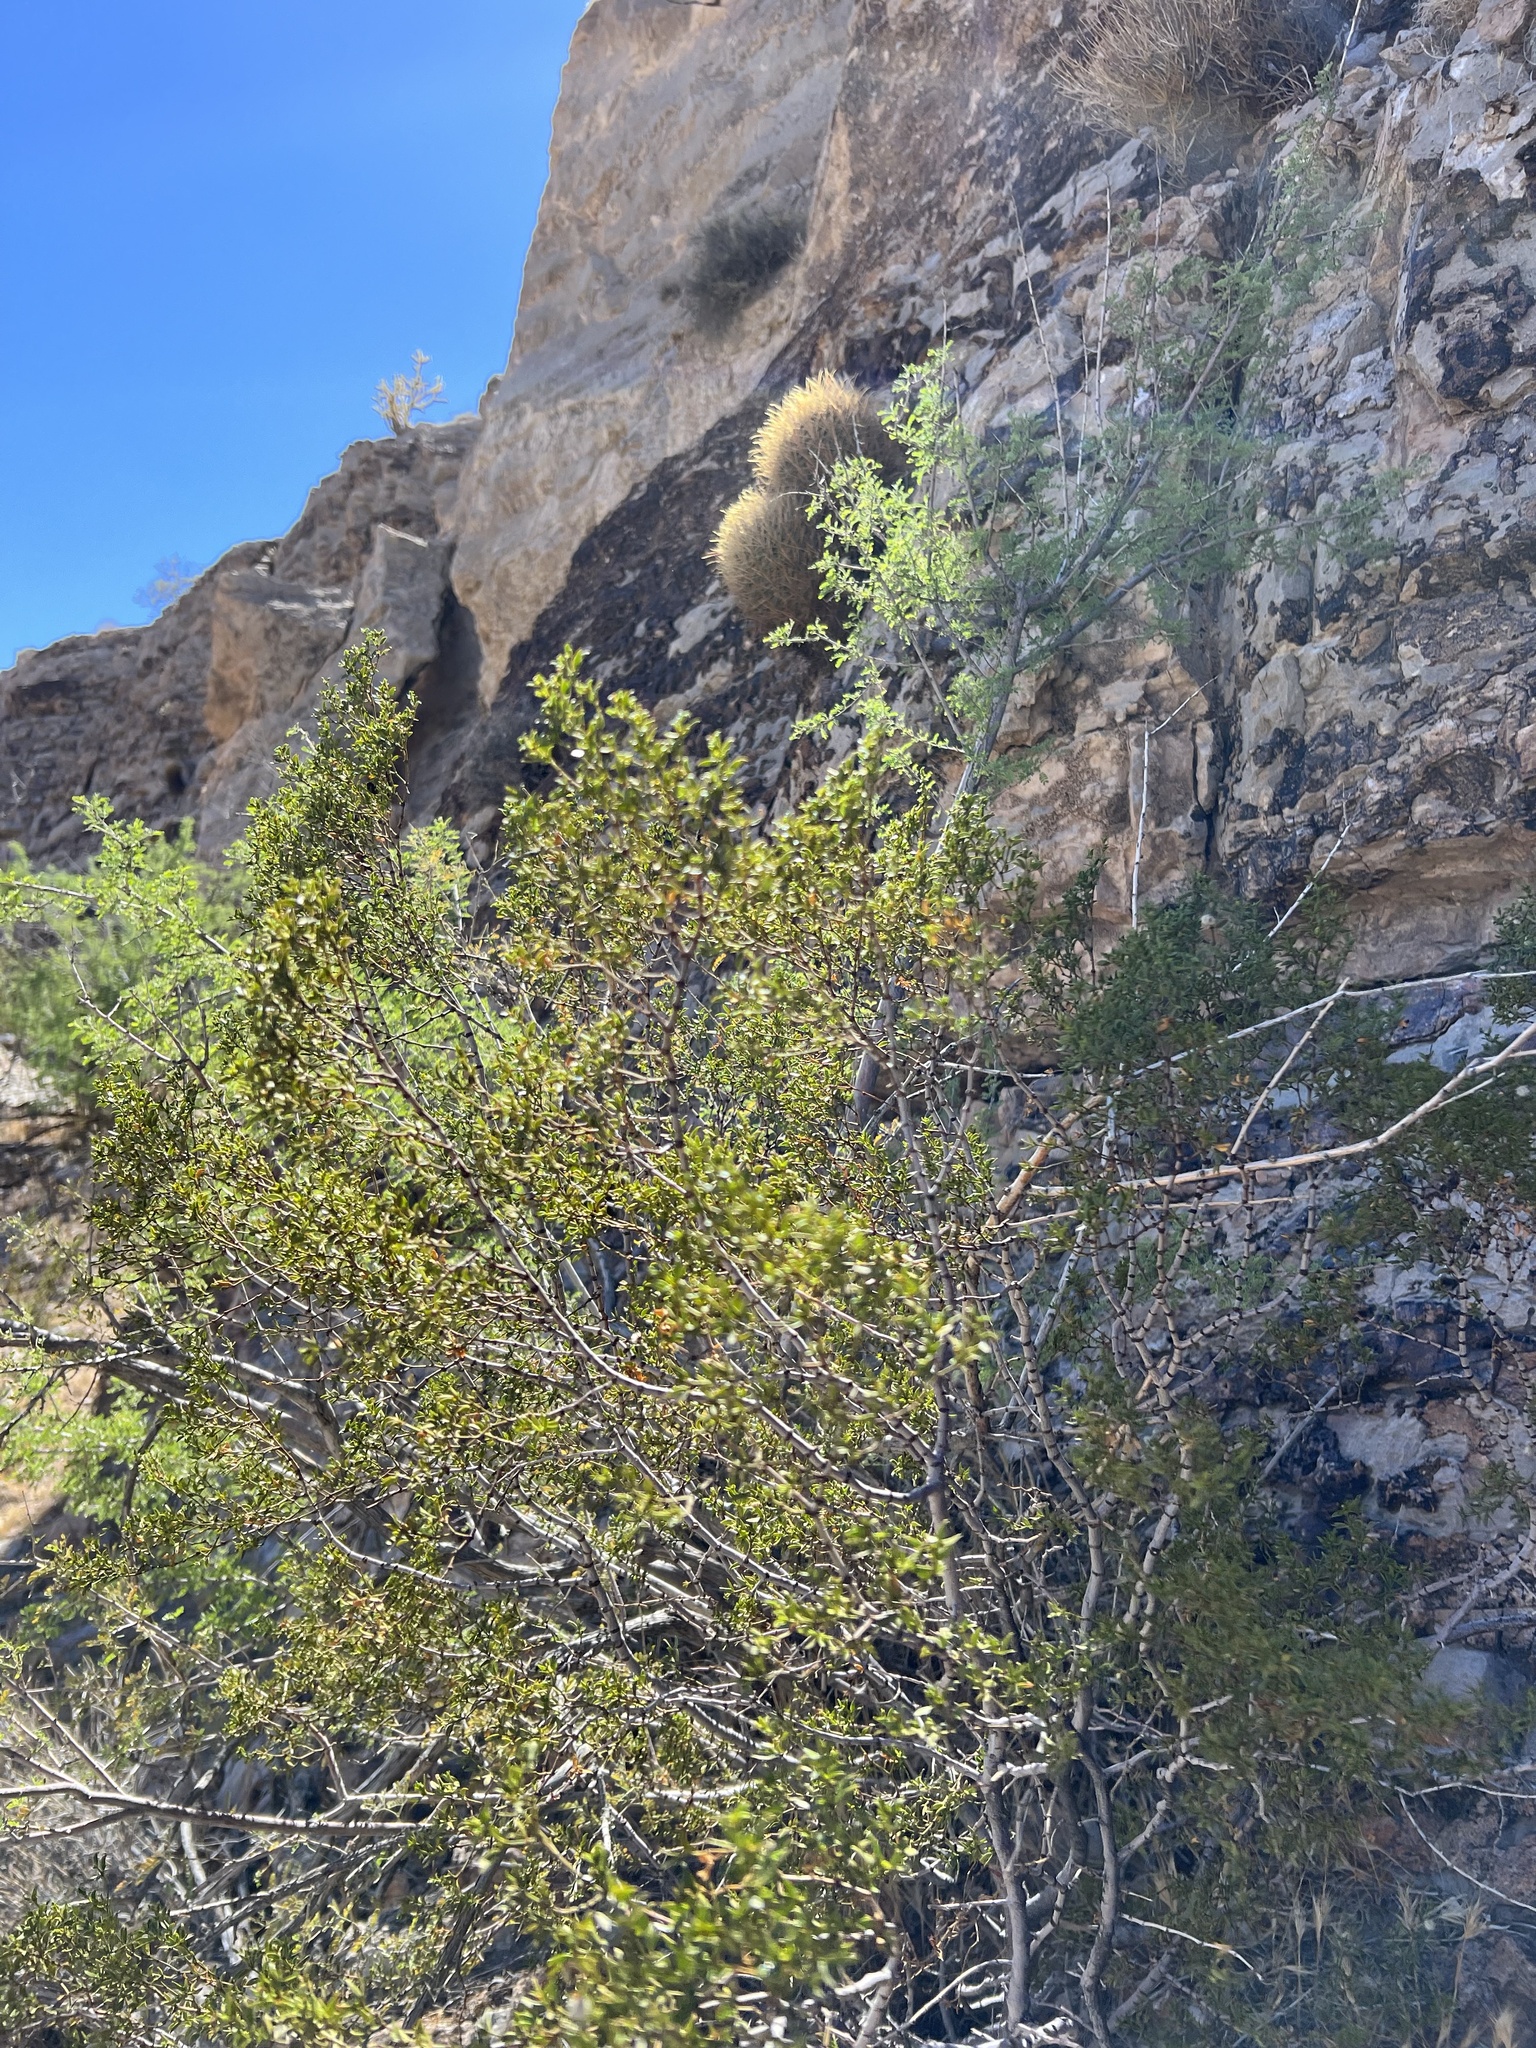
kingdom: Plantae
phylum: Tracheophyta
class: Magnoliopsida
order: Zygophyllales
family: Zygophyllaceae
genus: Larrea
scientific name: Larrea tridentata
